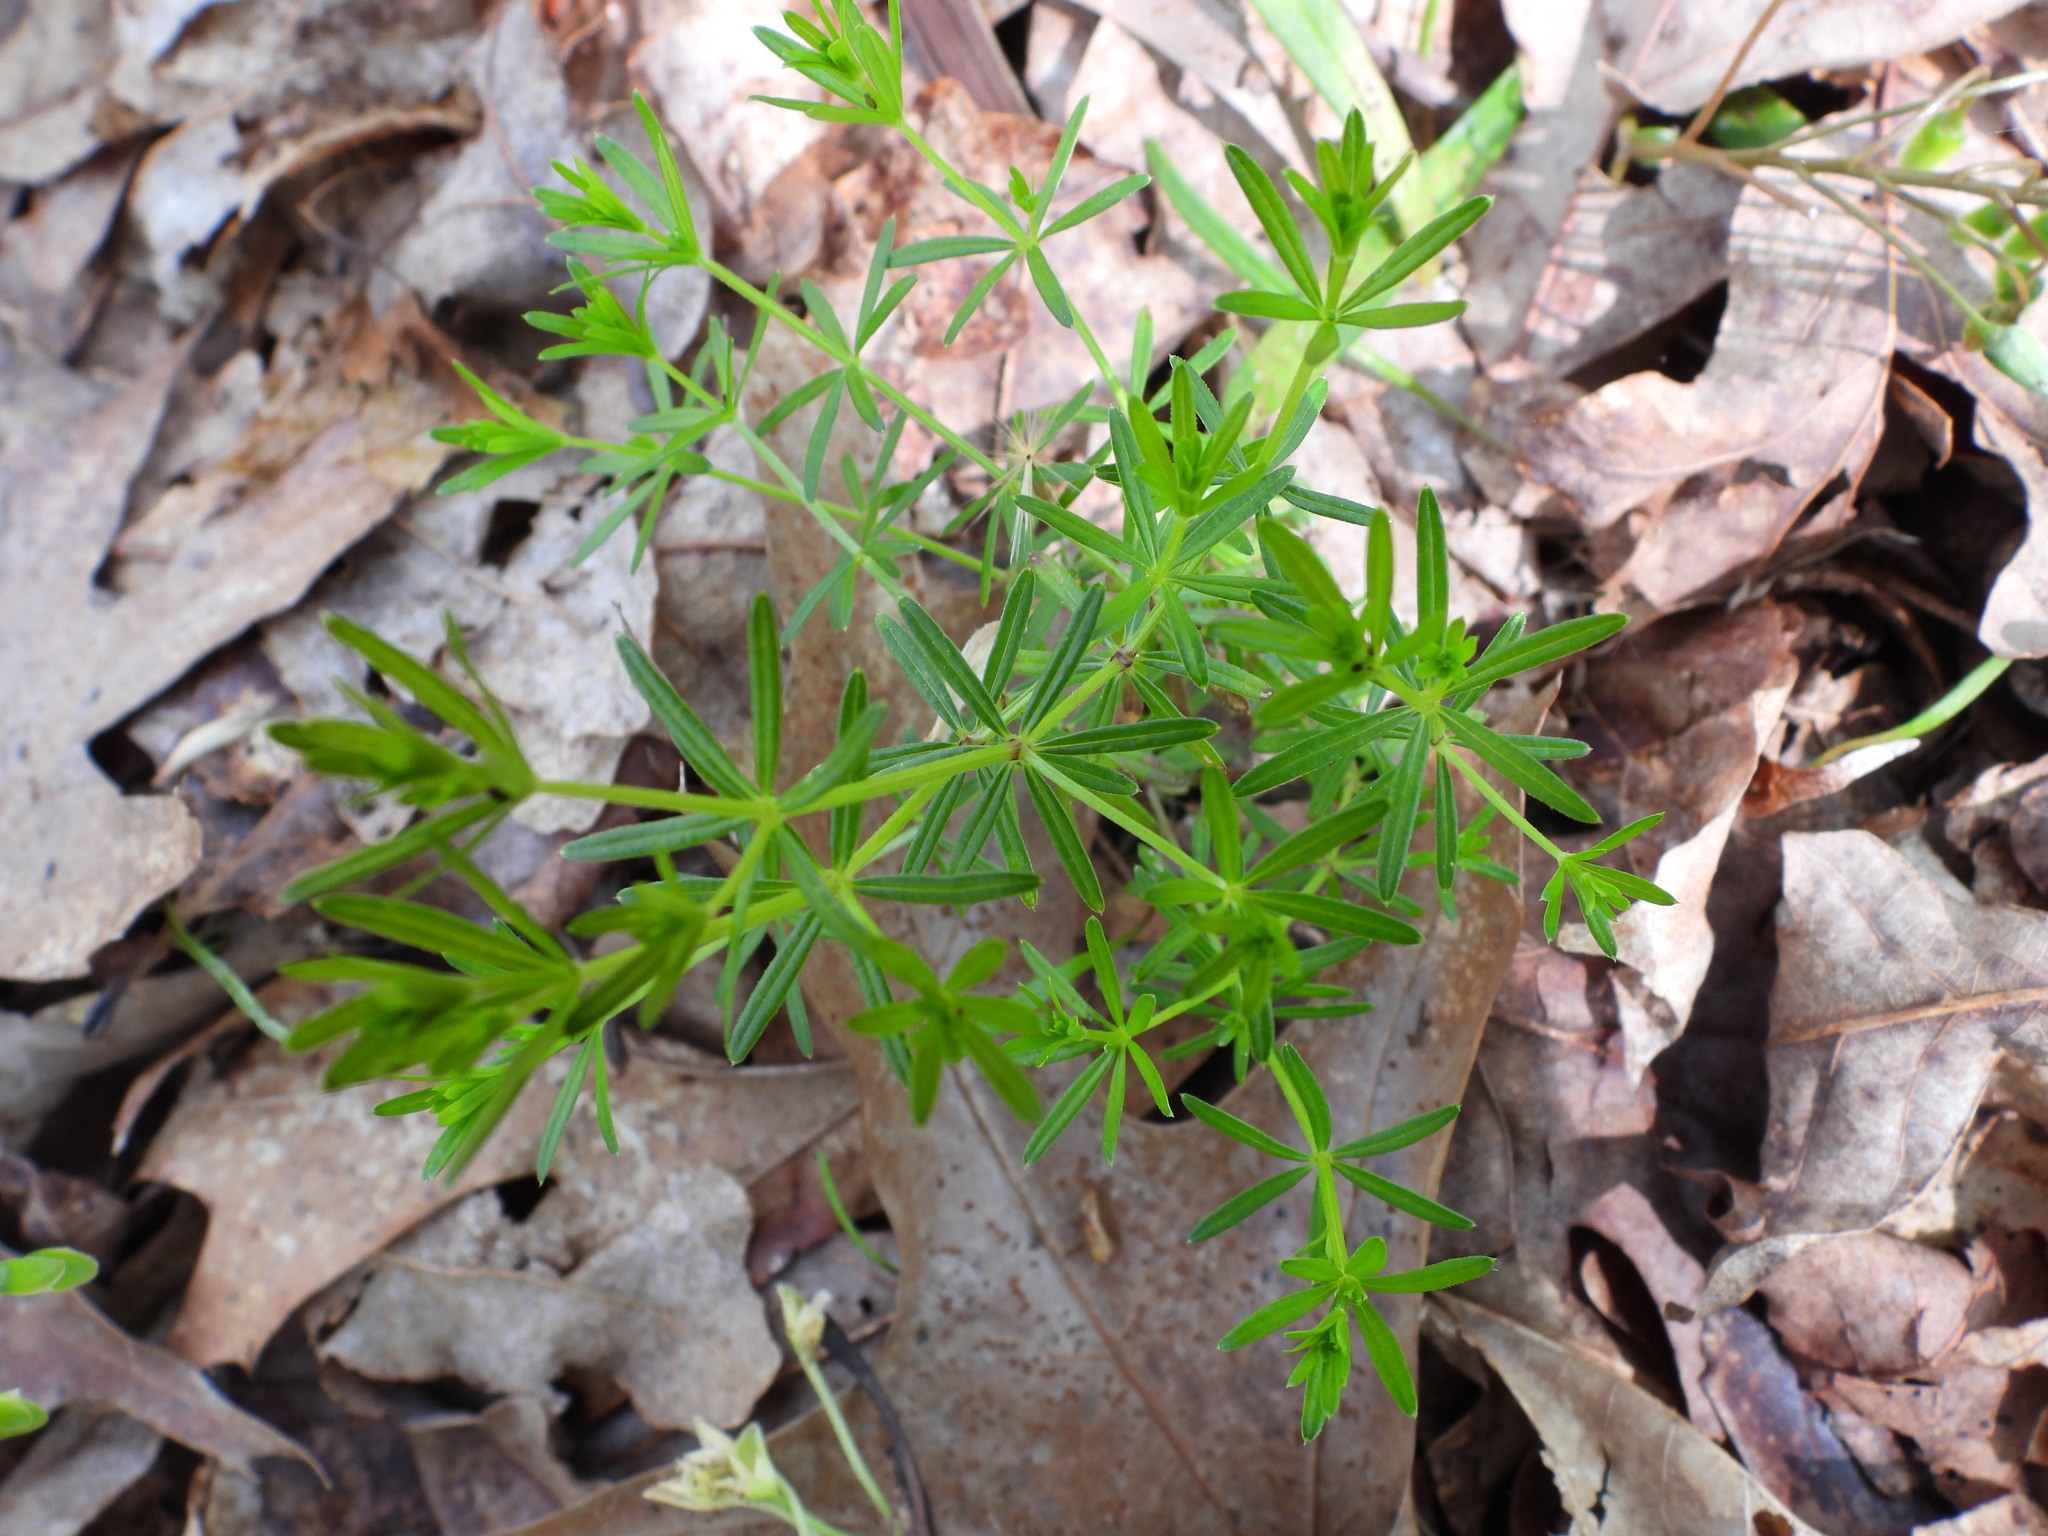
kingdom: Plantae
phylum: Tracheophyta
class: Magnoliopsida
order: Gentianales
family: Rubiaceae
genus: Galium
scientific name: Galium concinnum
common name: Shining bedstraw
